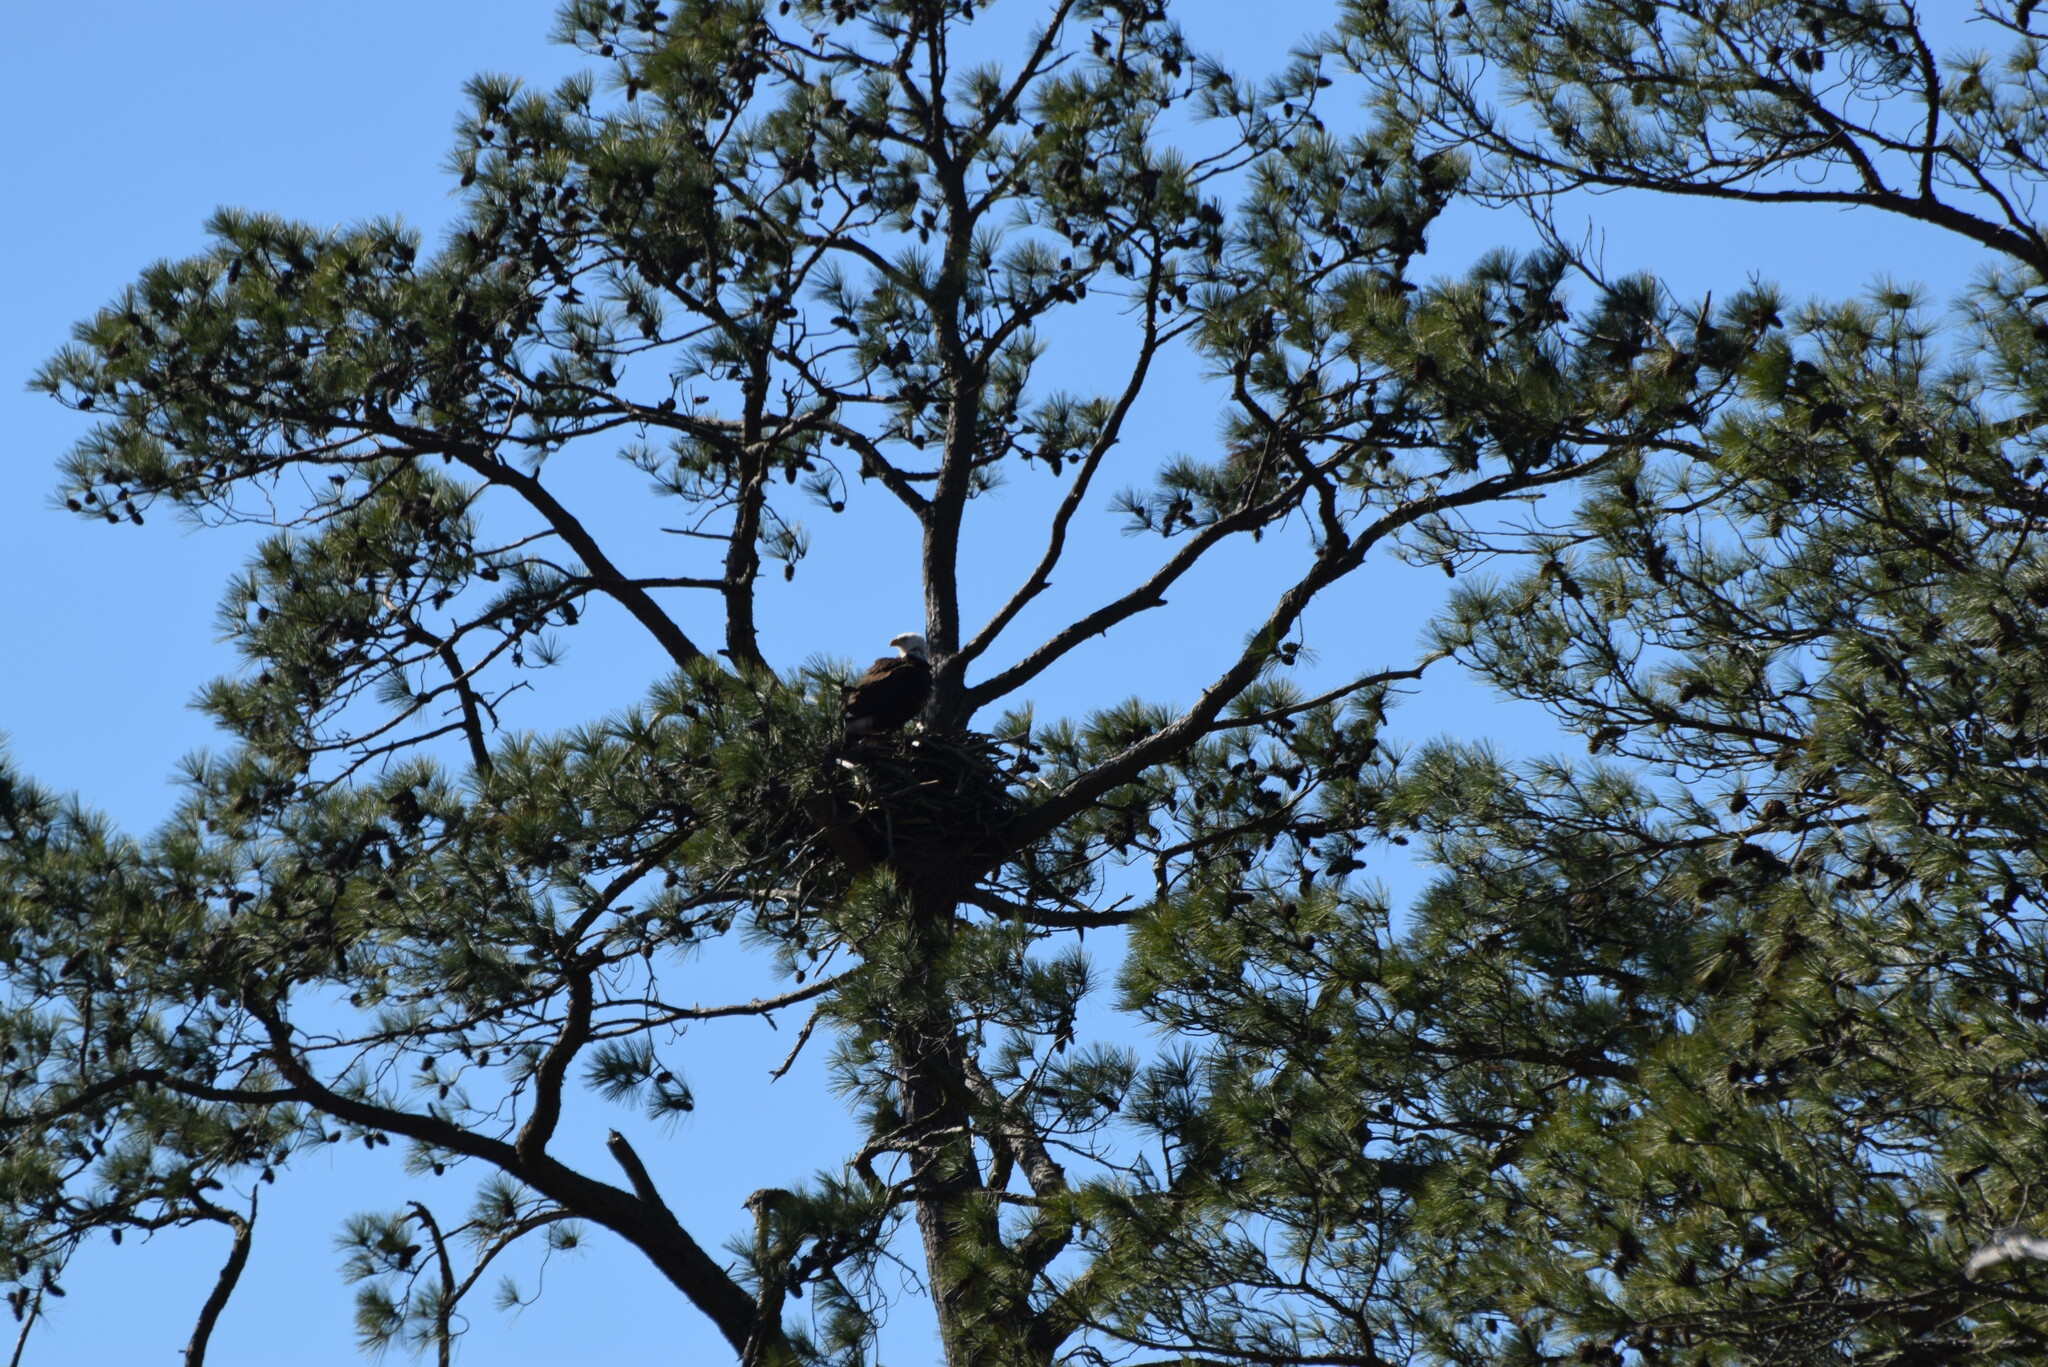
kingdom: Animalia
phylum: Chordata
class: Aves
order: Accipitriformes
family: Accipitridae
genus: Haliaeetus
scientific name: Haliaeetus leucocephalus
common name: Bald eagle
